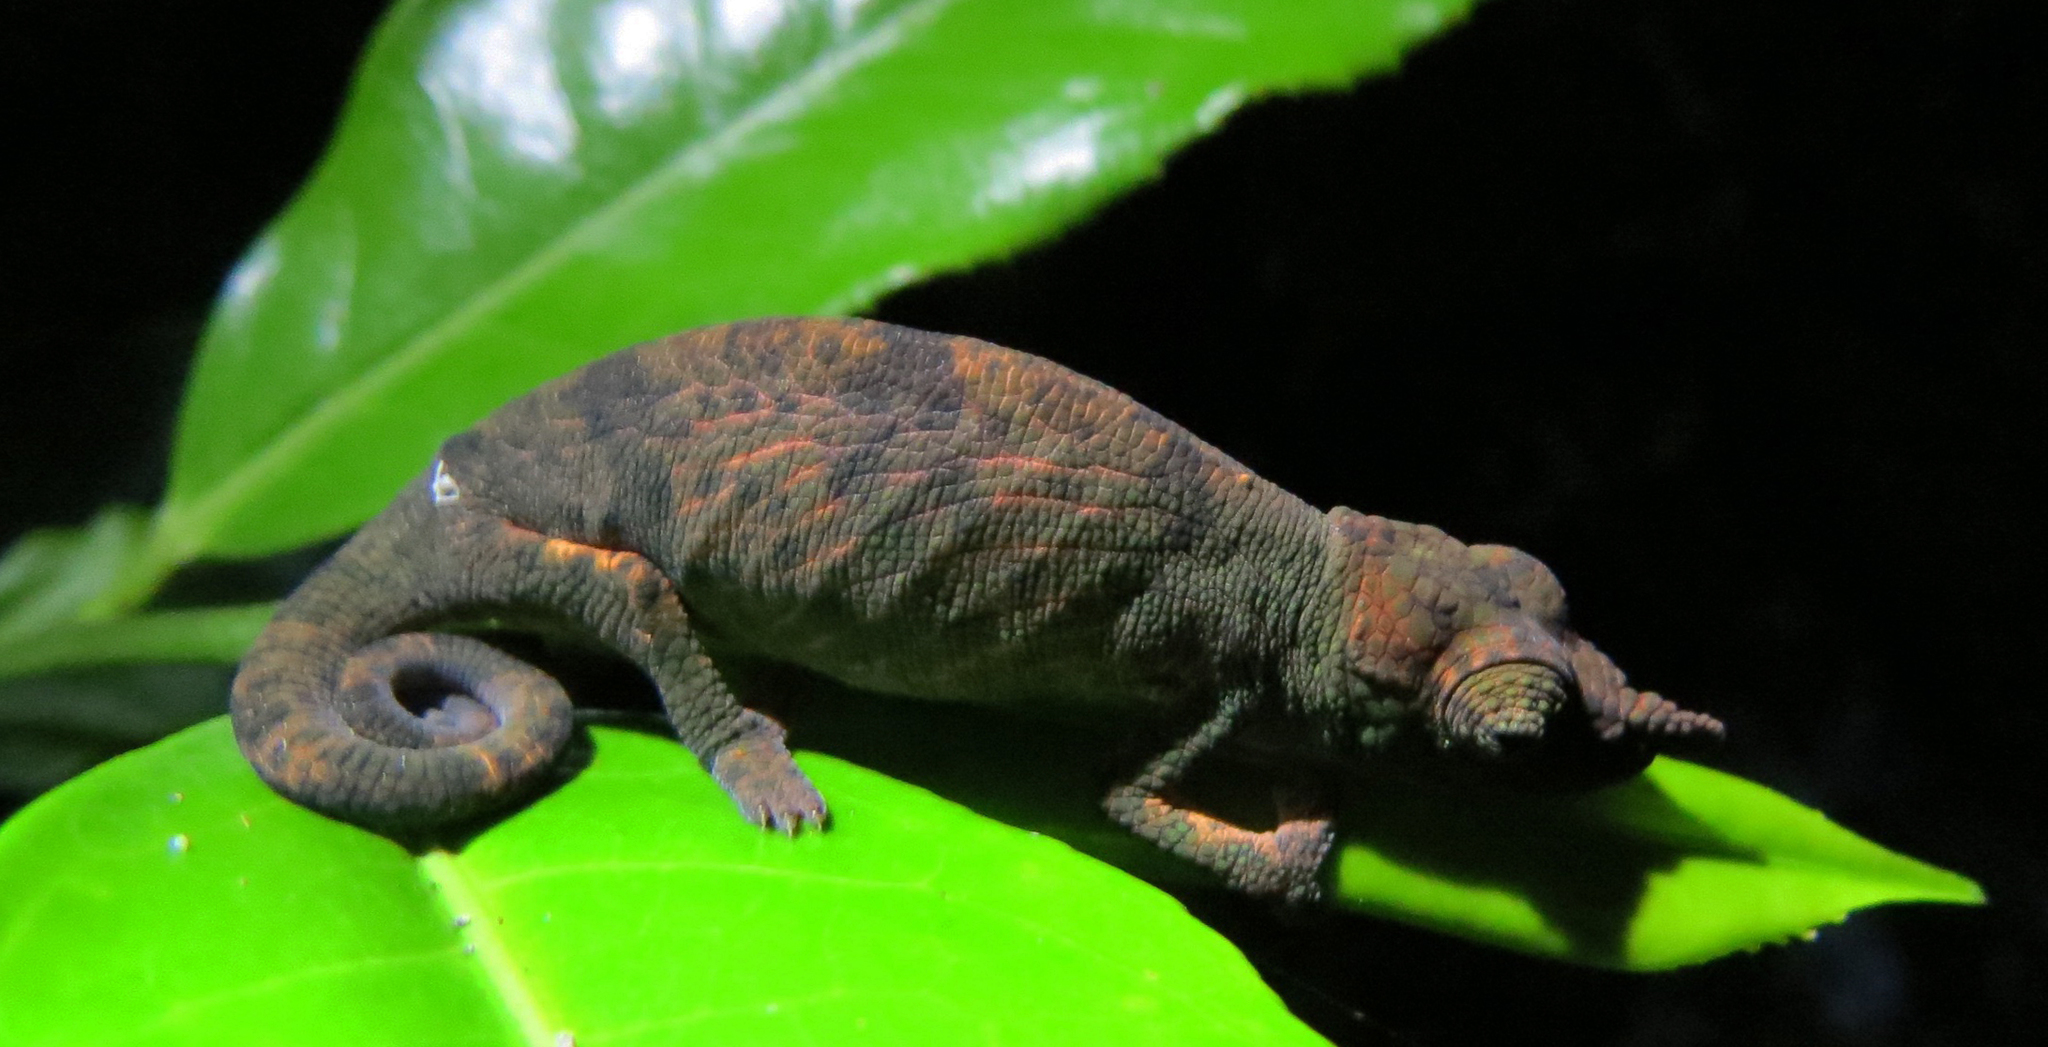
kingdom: Animalia
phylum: Chordata
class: Squamata
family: Chamaeleonidae
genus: Calumma
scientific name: Calumma emelinae
